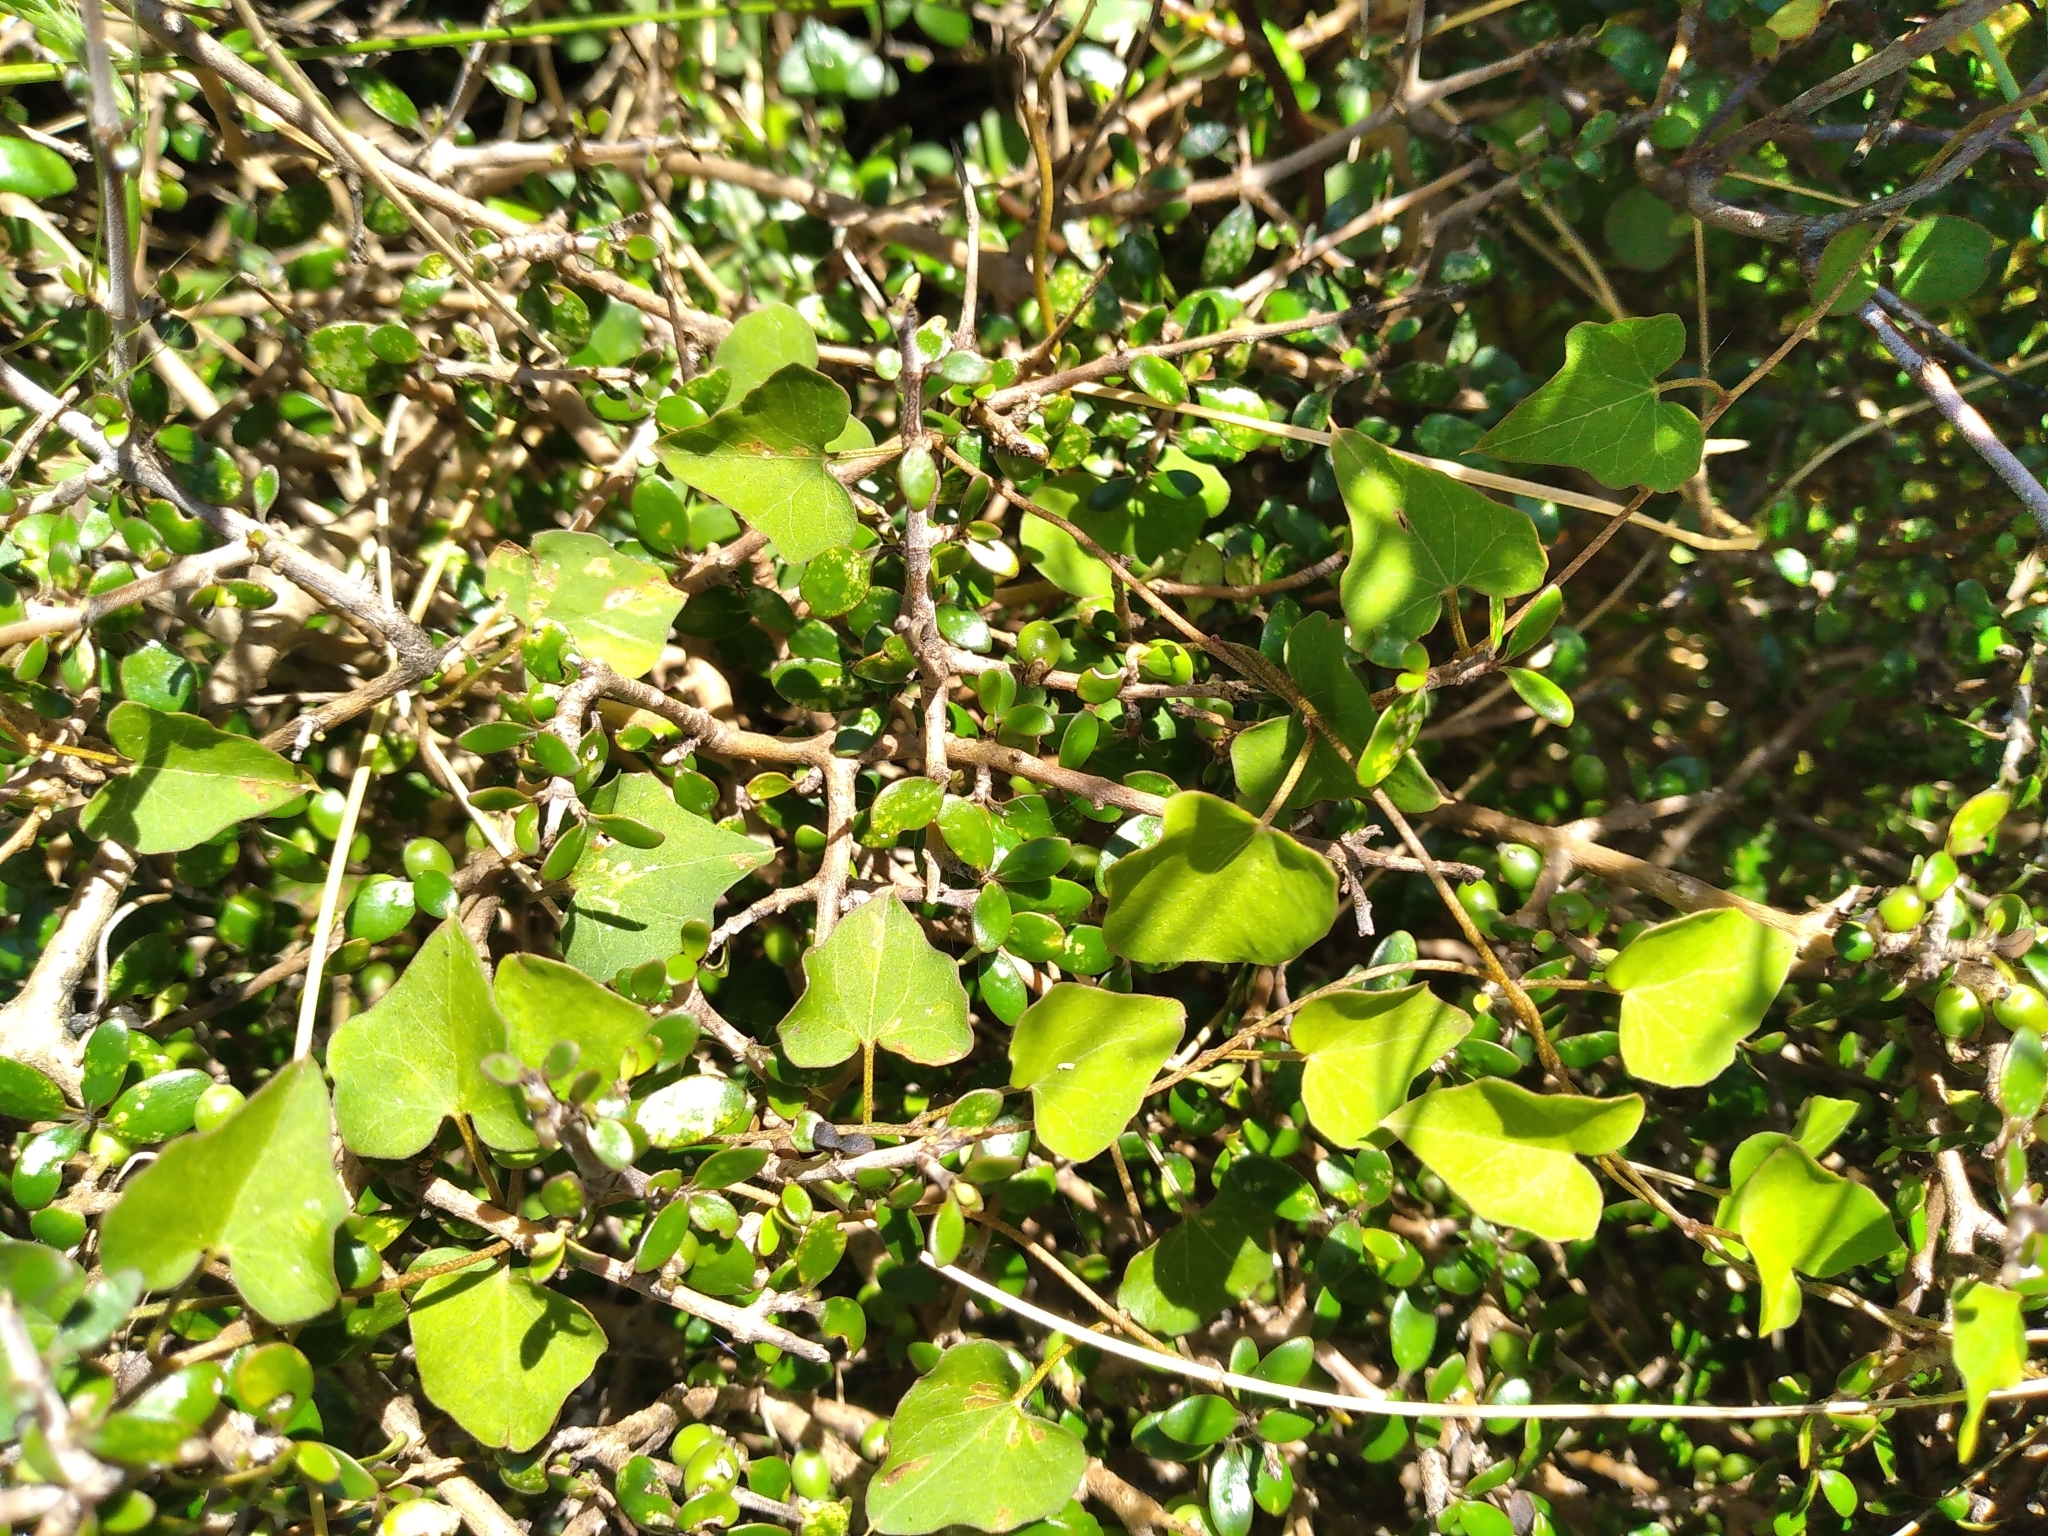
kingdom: Plantae
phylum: Tracheophyta
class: Magnoliopsida
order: Solanales
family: Convolvulaceae
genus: Calystegia
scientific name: Calystegia tuguriorum
